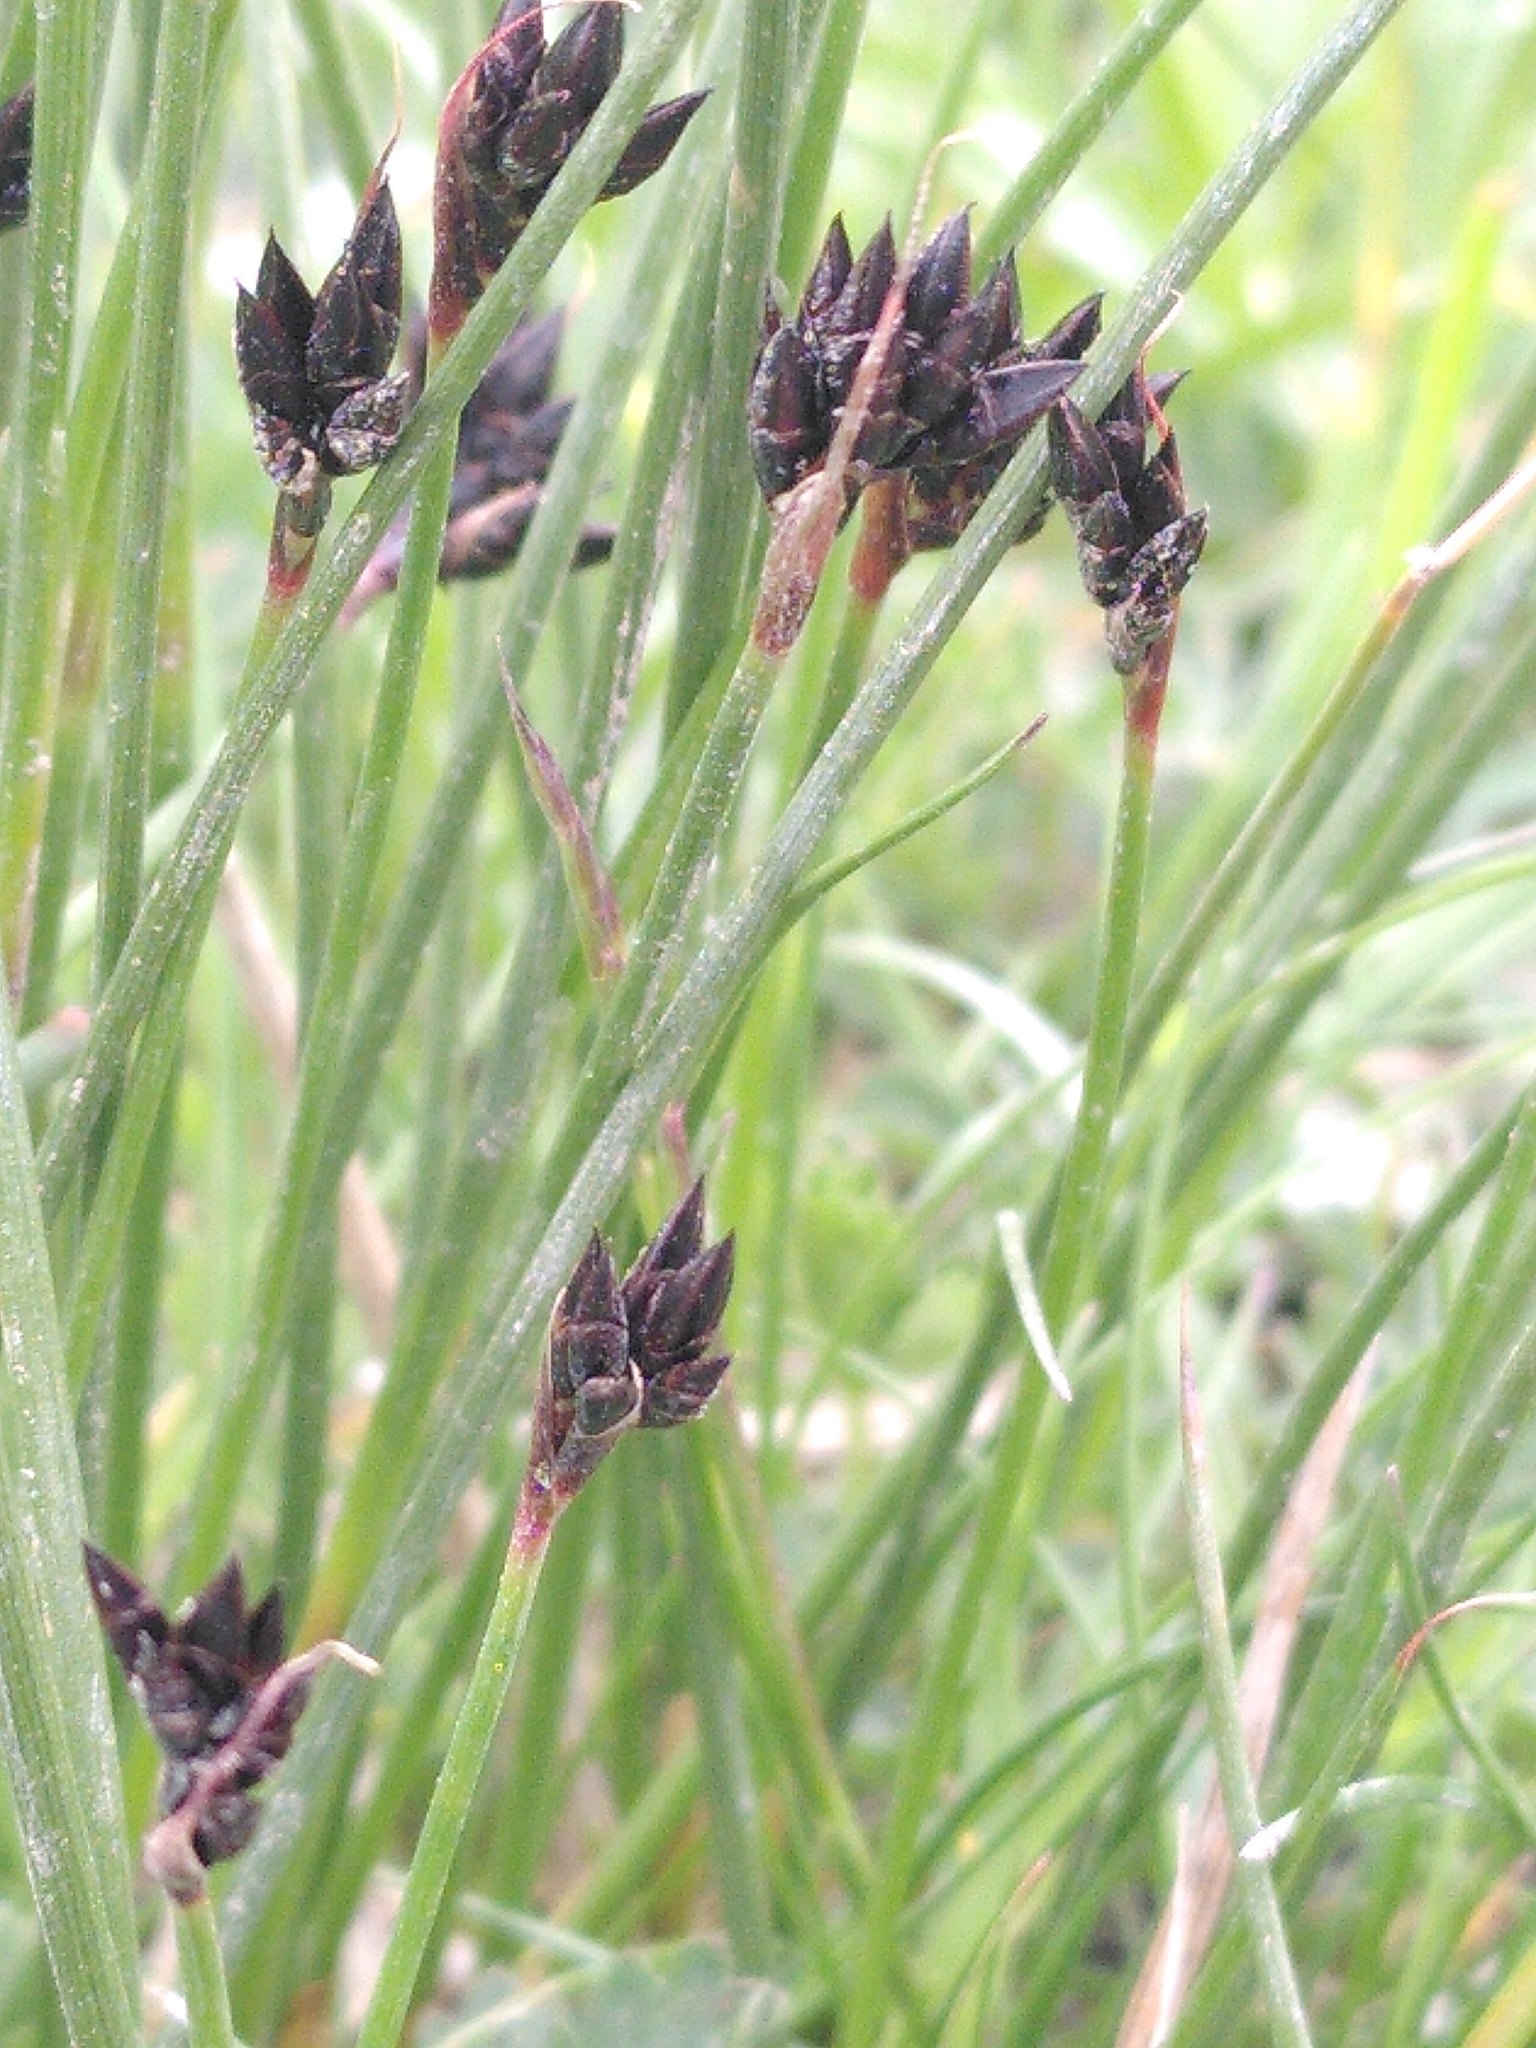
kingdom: Plantae
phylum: Tracheophyta
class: Liliopsida
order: Poales
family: Cyperaceae
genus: Schoenus
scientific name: Schoenus nigricans
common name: Black bog-rush
